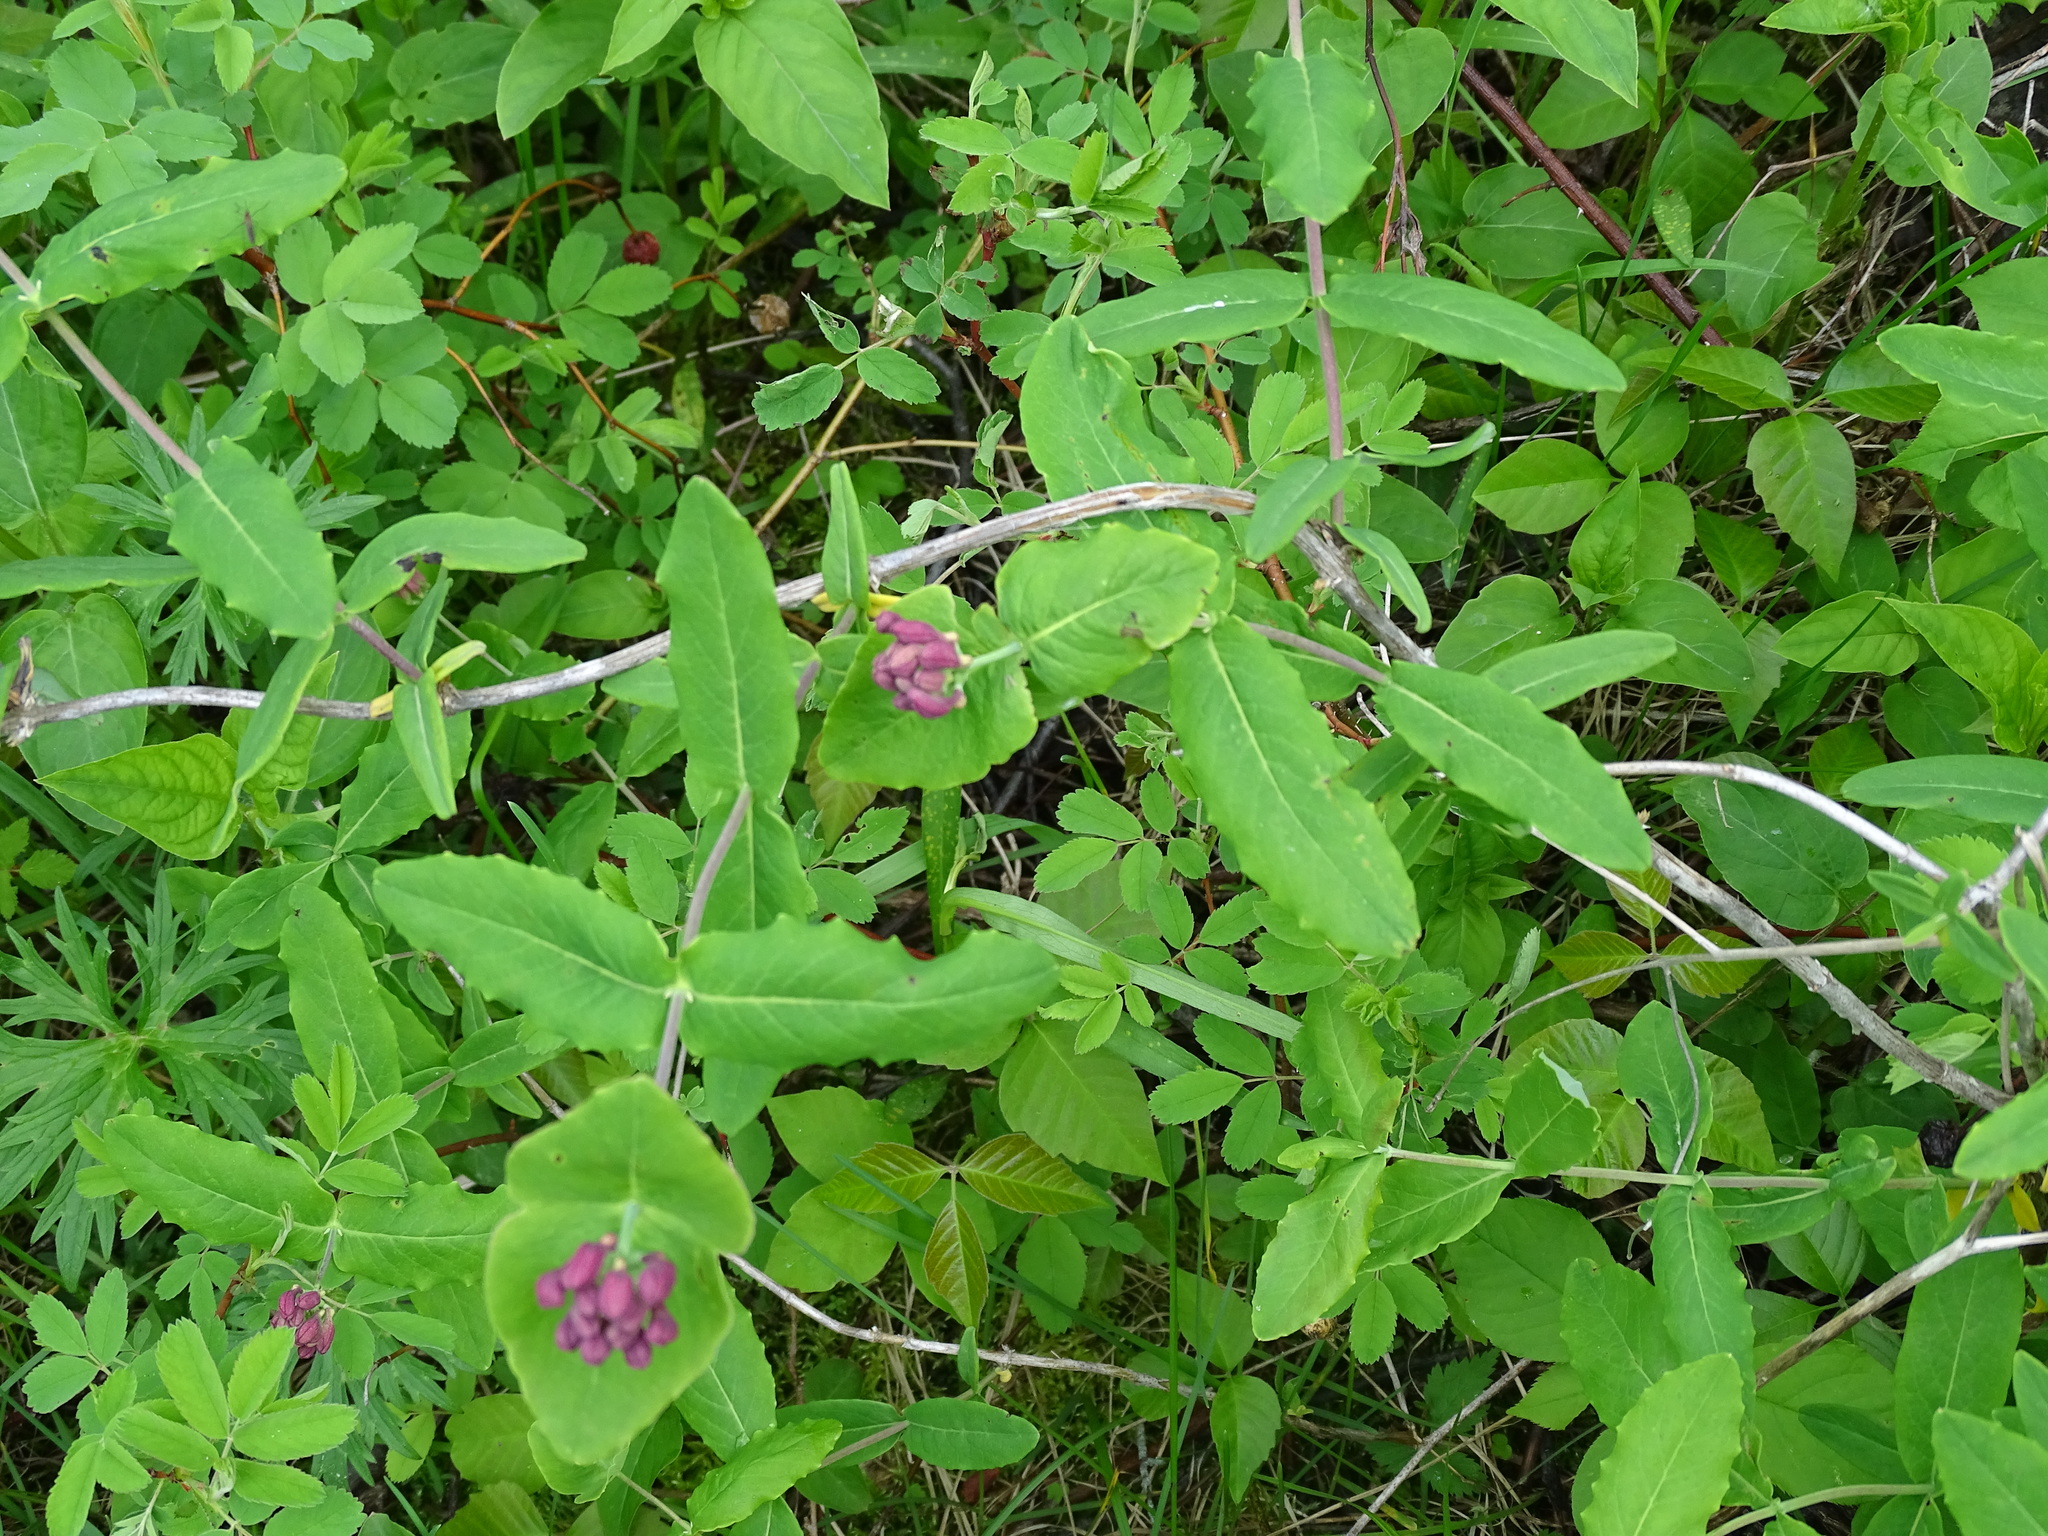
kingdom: Plantae
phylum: Tracheophyta
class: Magnoliopsida
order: Dipsacales
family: Caprifoliaceae
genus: Lonicera
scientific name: Lonicera dioica
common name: Limber honeysuckle
